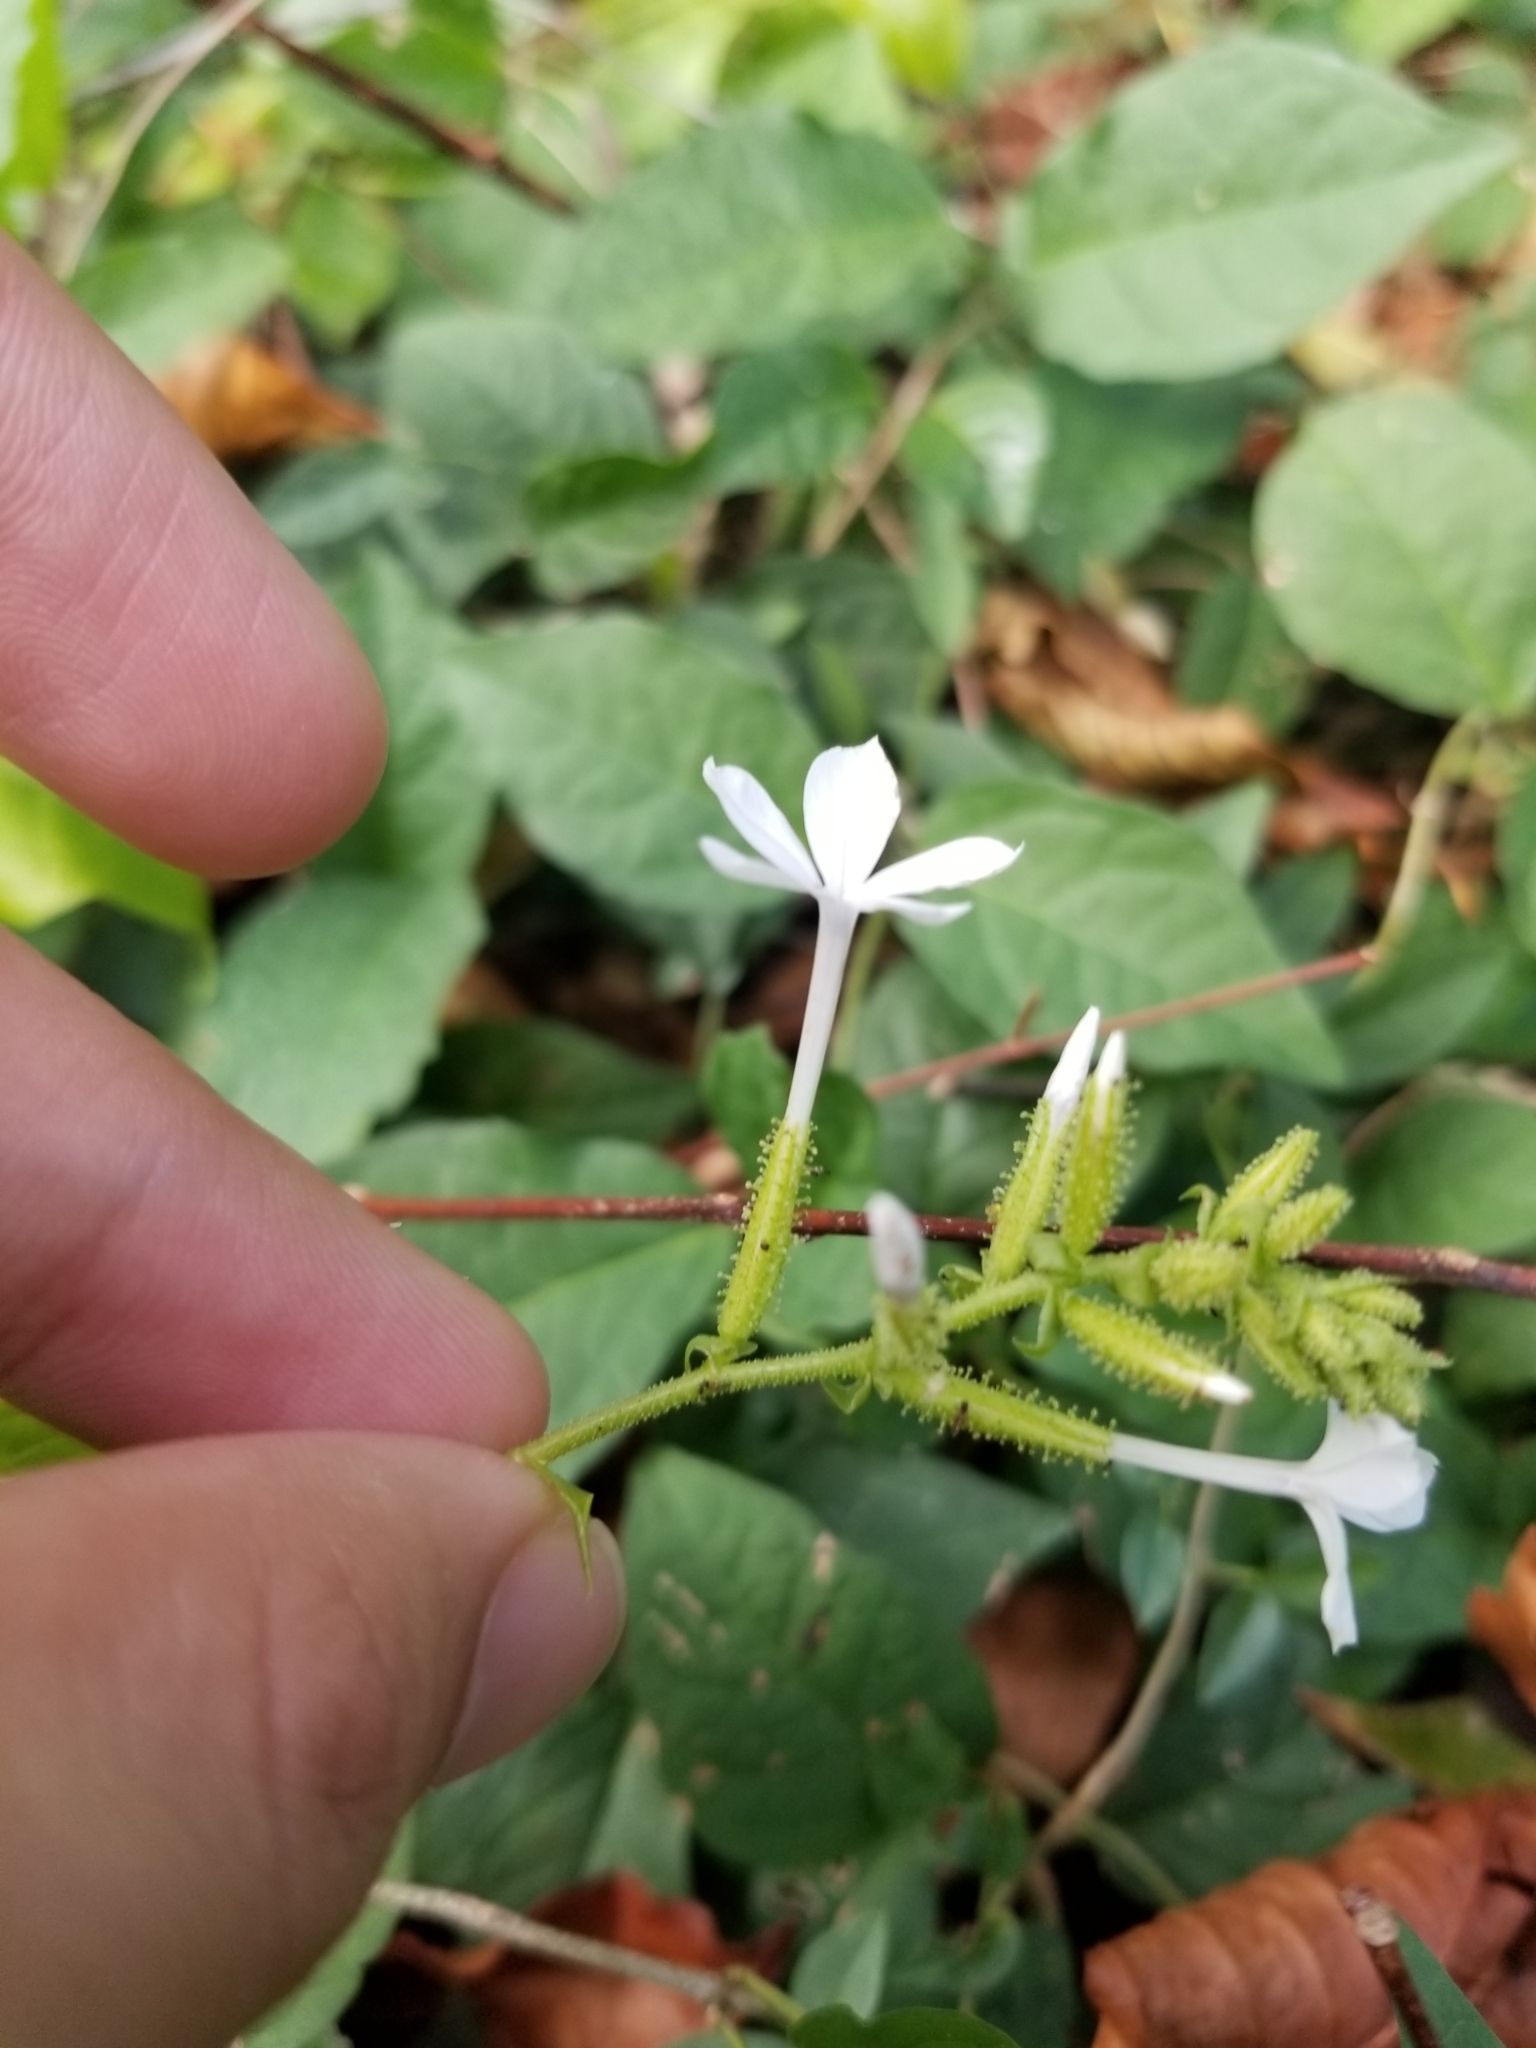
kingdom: Plantae
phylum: Tracheophyta
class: Magnoliopsida
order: Caryophyllales
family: Plumbaginaceae
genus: Plumbago
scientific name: Plumbago zeylanica
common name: Doctorbush
